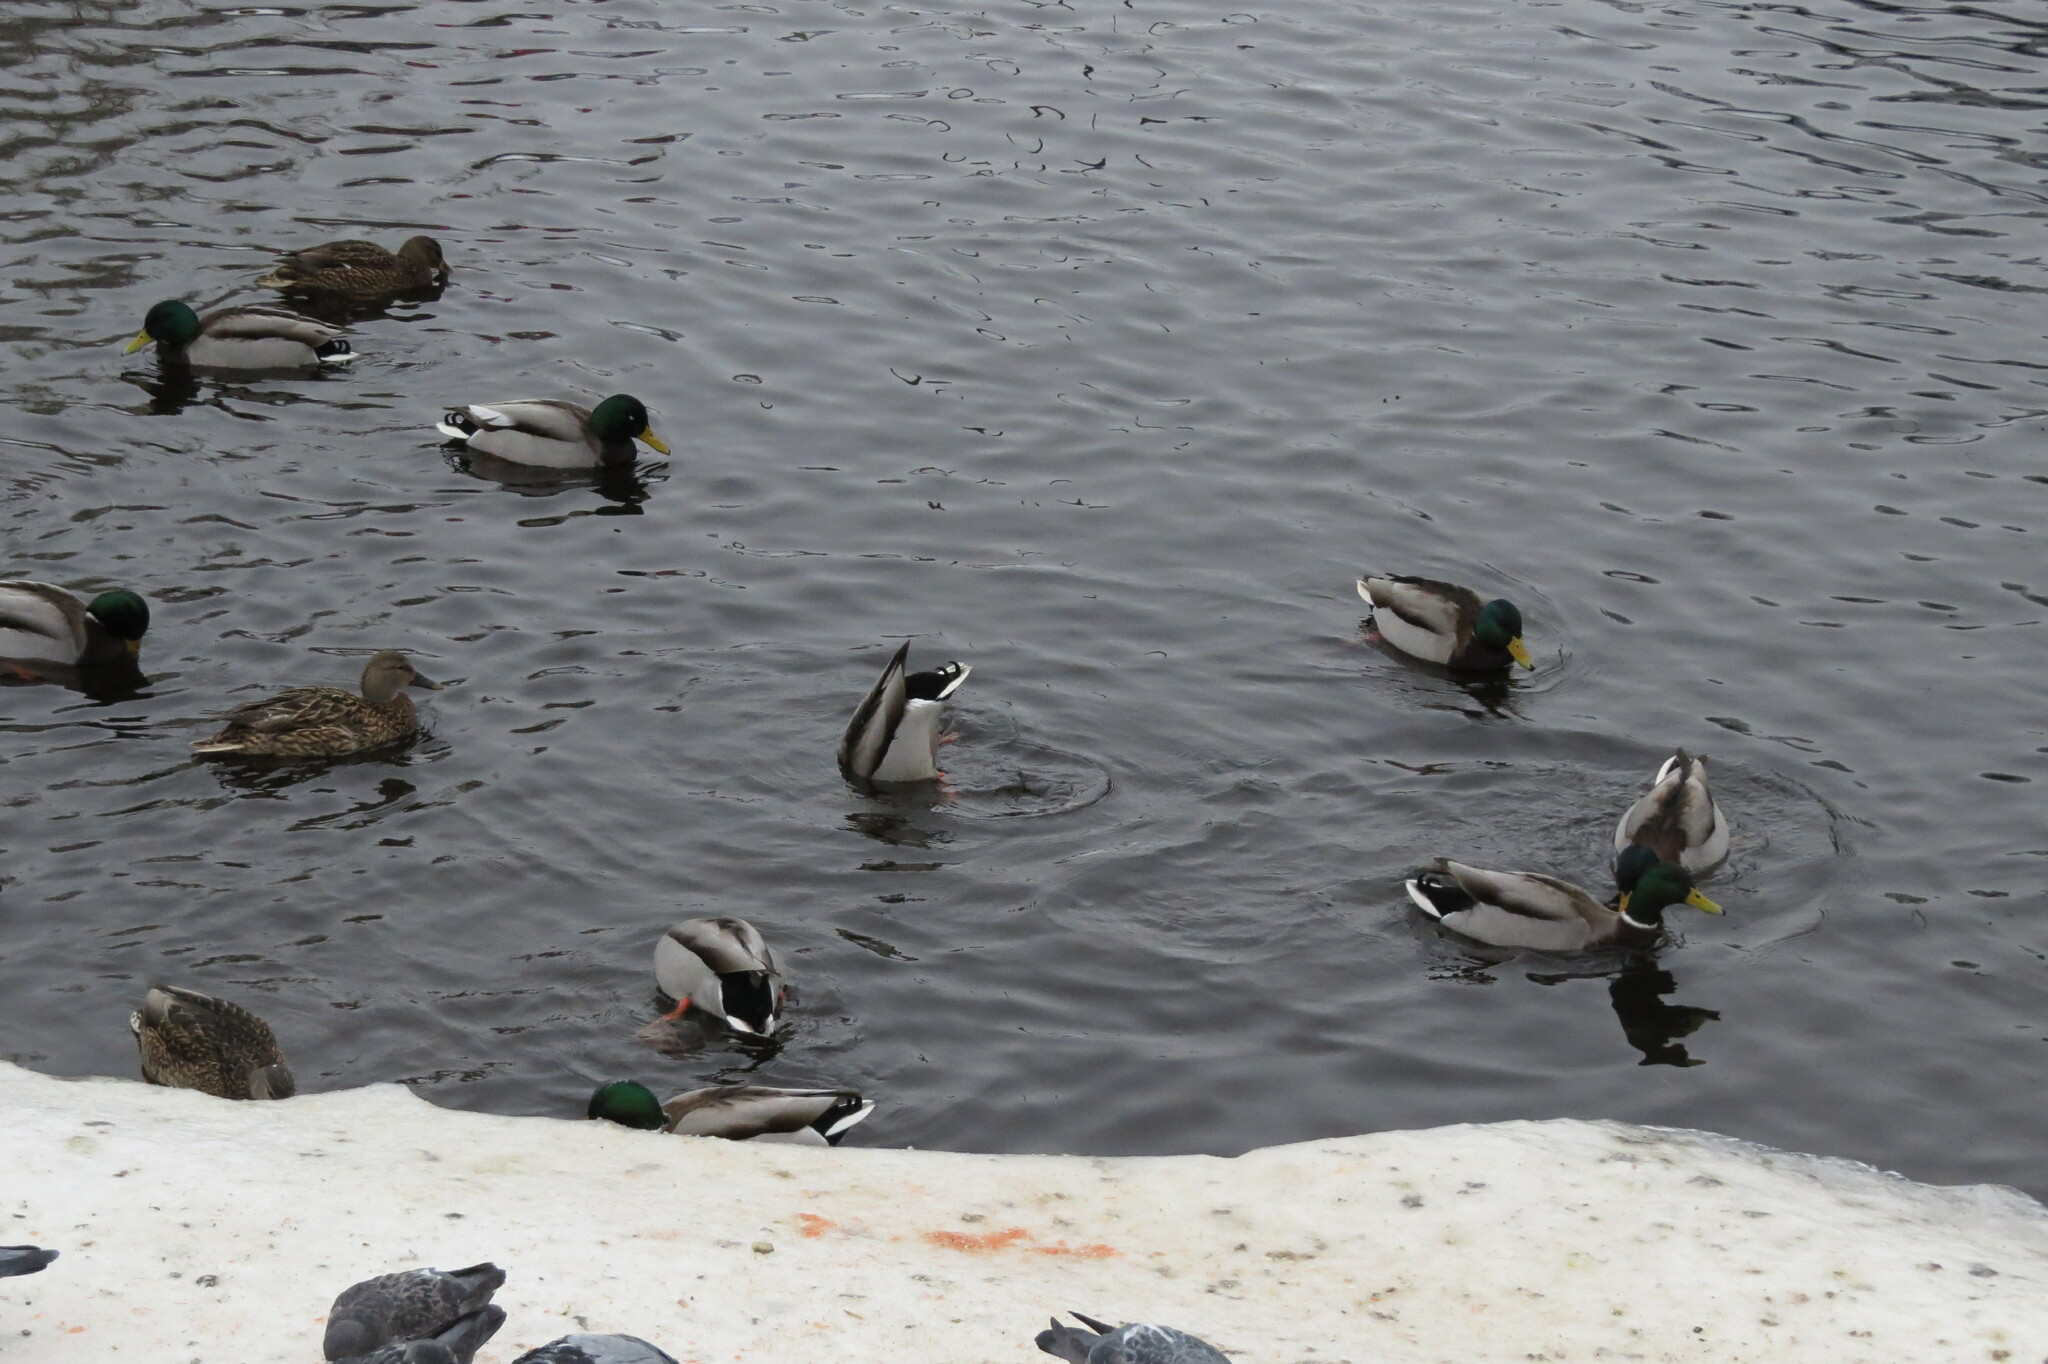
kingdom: Animalia
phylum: Chordata
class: Aves
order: Anseriformes
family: Anatidae
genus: Anas
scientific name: Anas platyrhynchos
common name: Mallard
